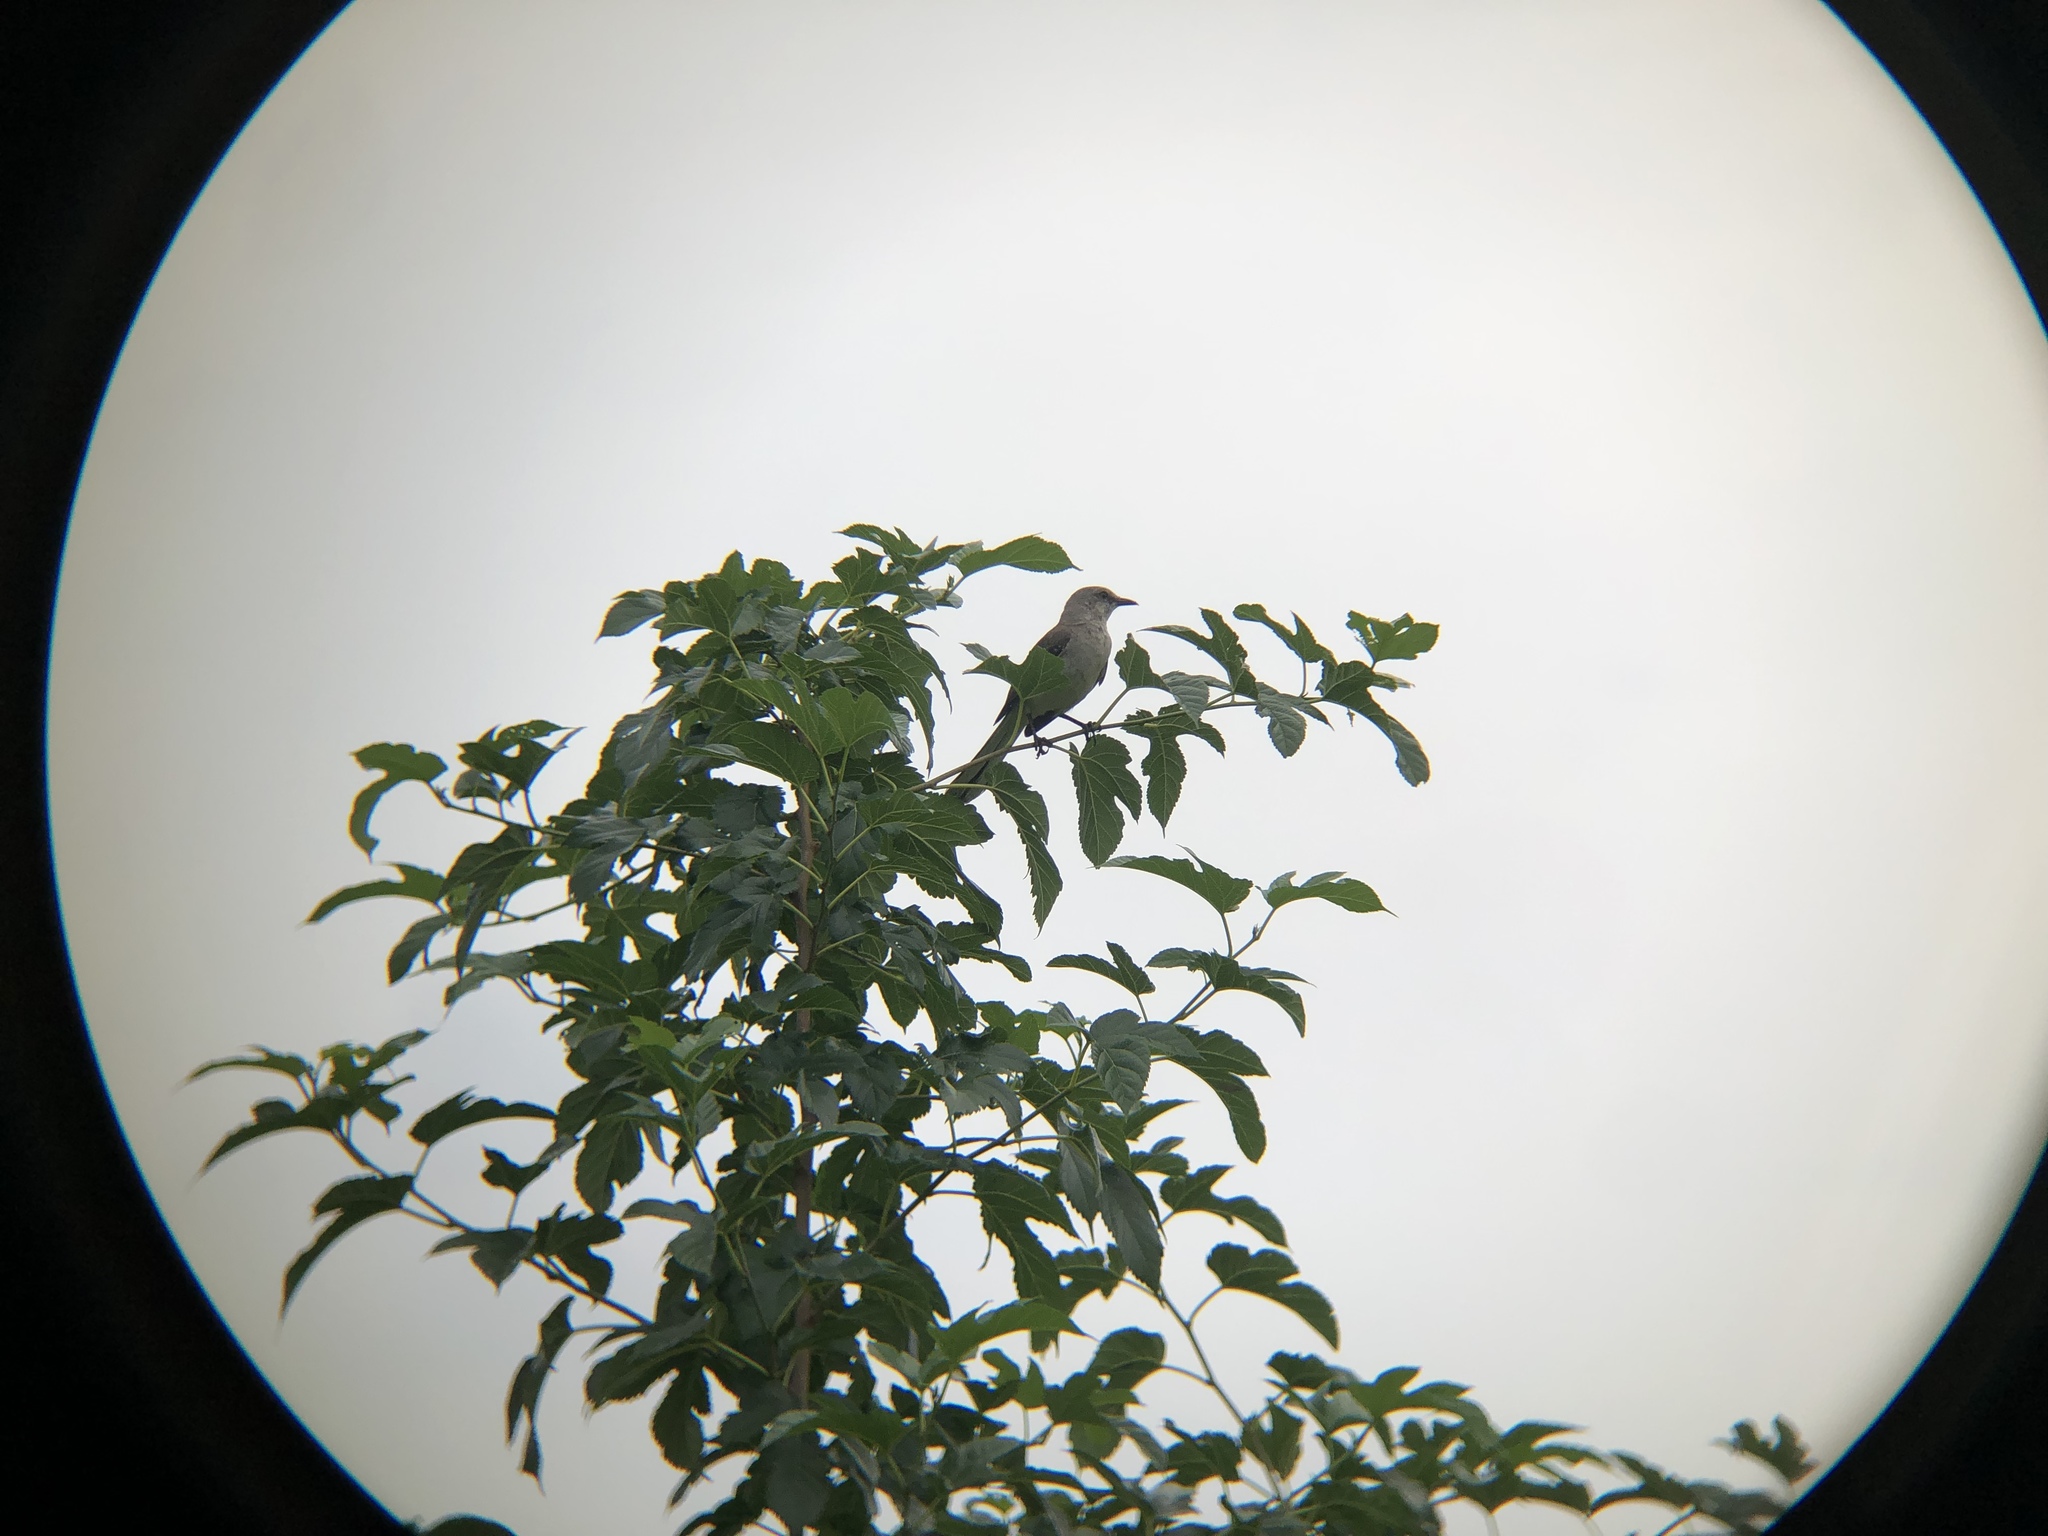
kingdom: Animalia
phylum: Chordata
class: Aves
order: Passeriformes
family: Mimidae
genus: Mimus
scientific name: Mimus polyglottos
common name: Northern mockingbird
